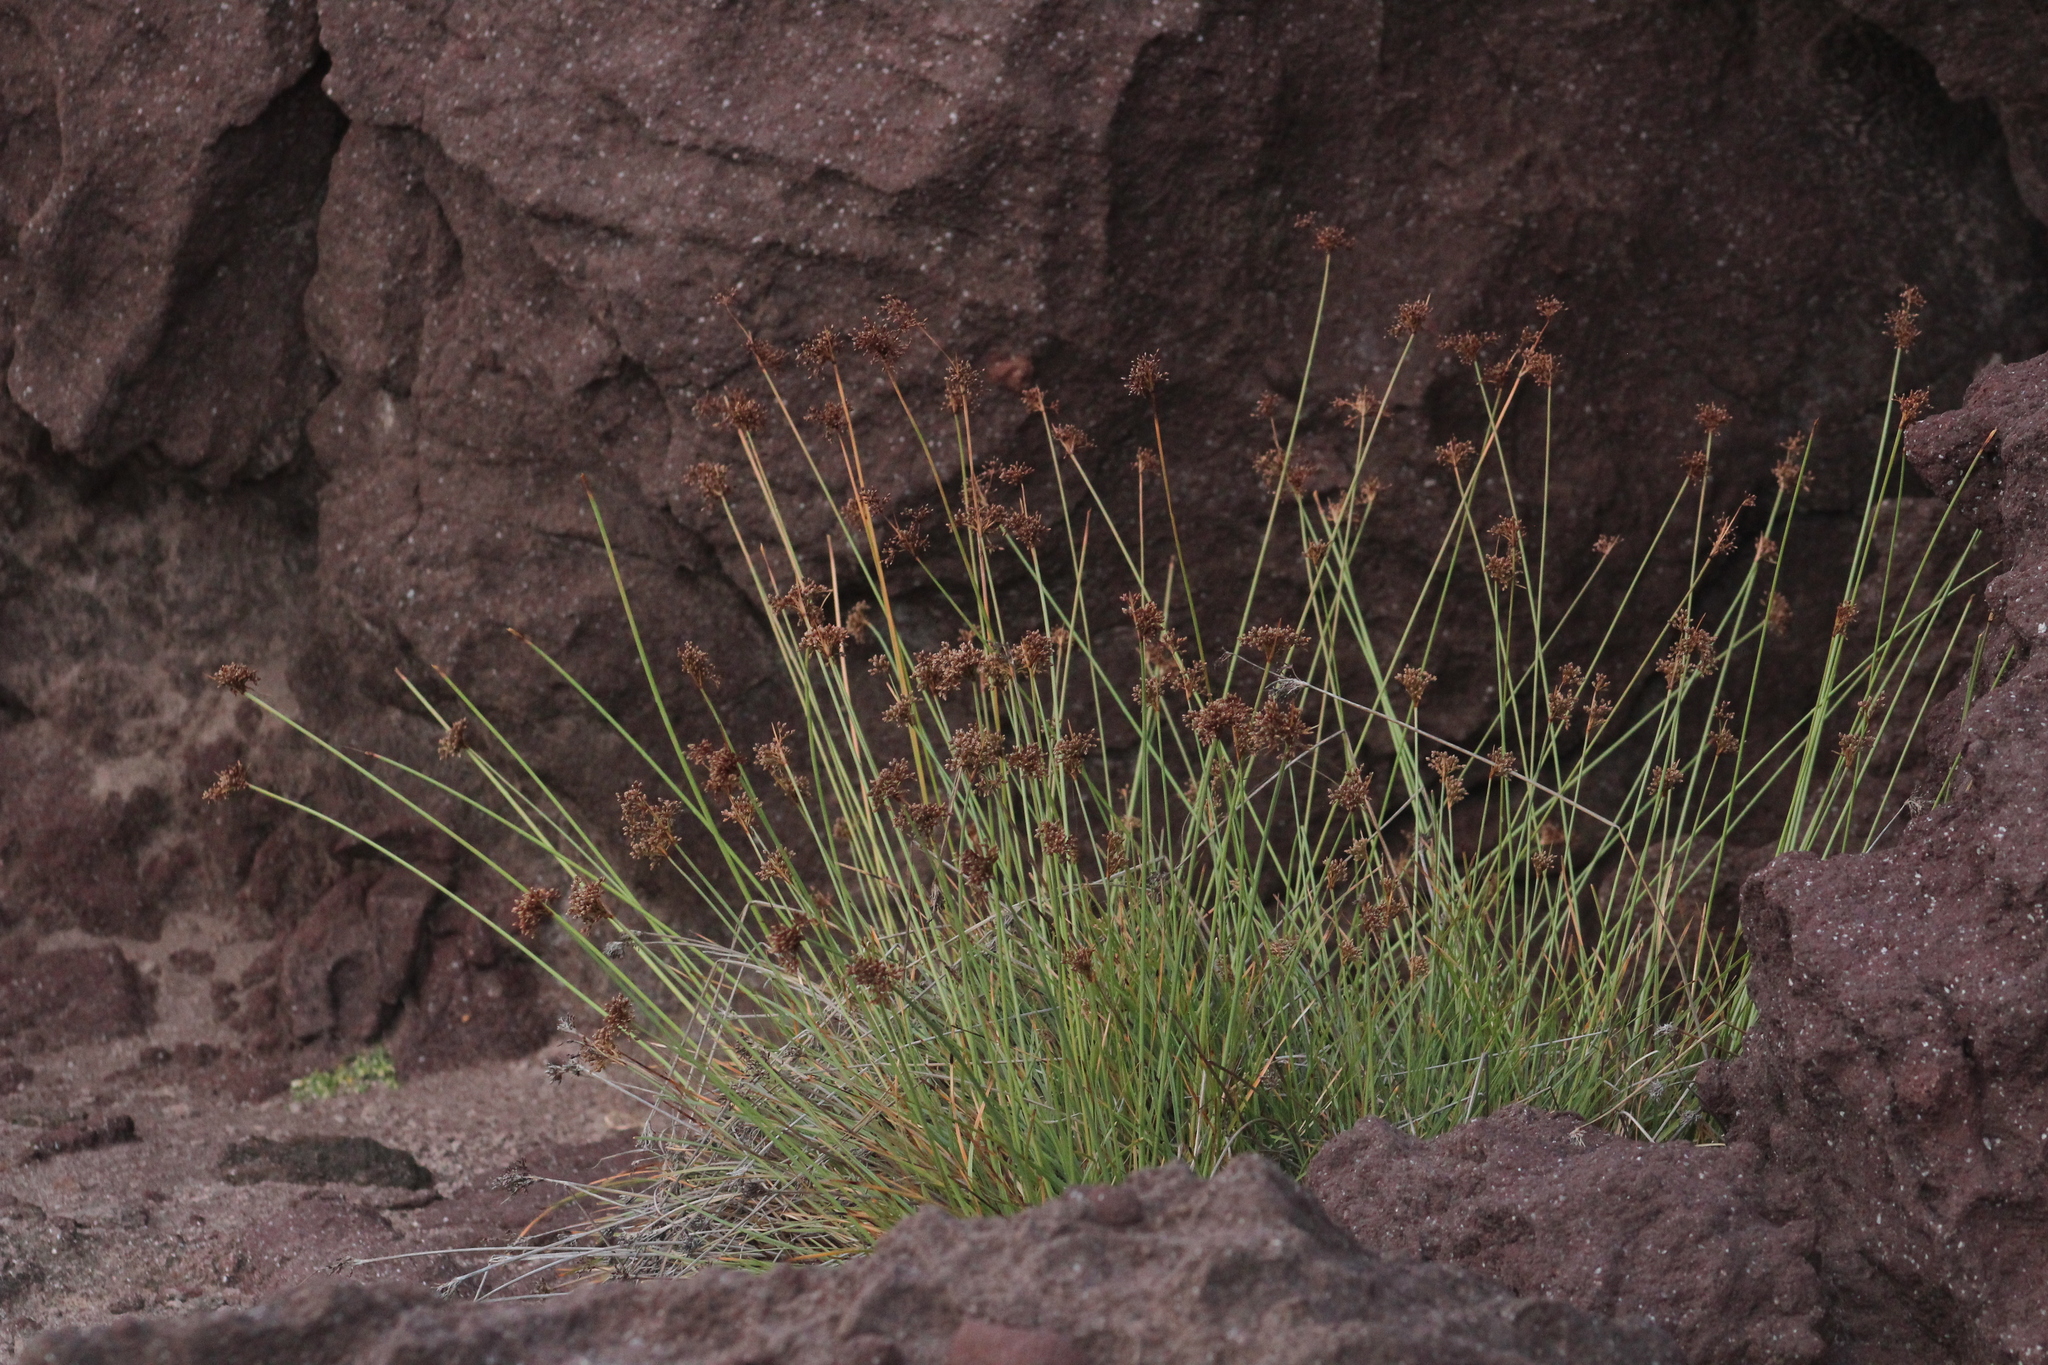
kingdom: Plantae
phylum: Tracheophyta
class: Liliopsida
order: Poales
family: Cyperaceae
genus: Fimbristylis
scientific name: Fimbristylis cymosa
